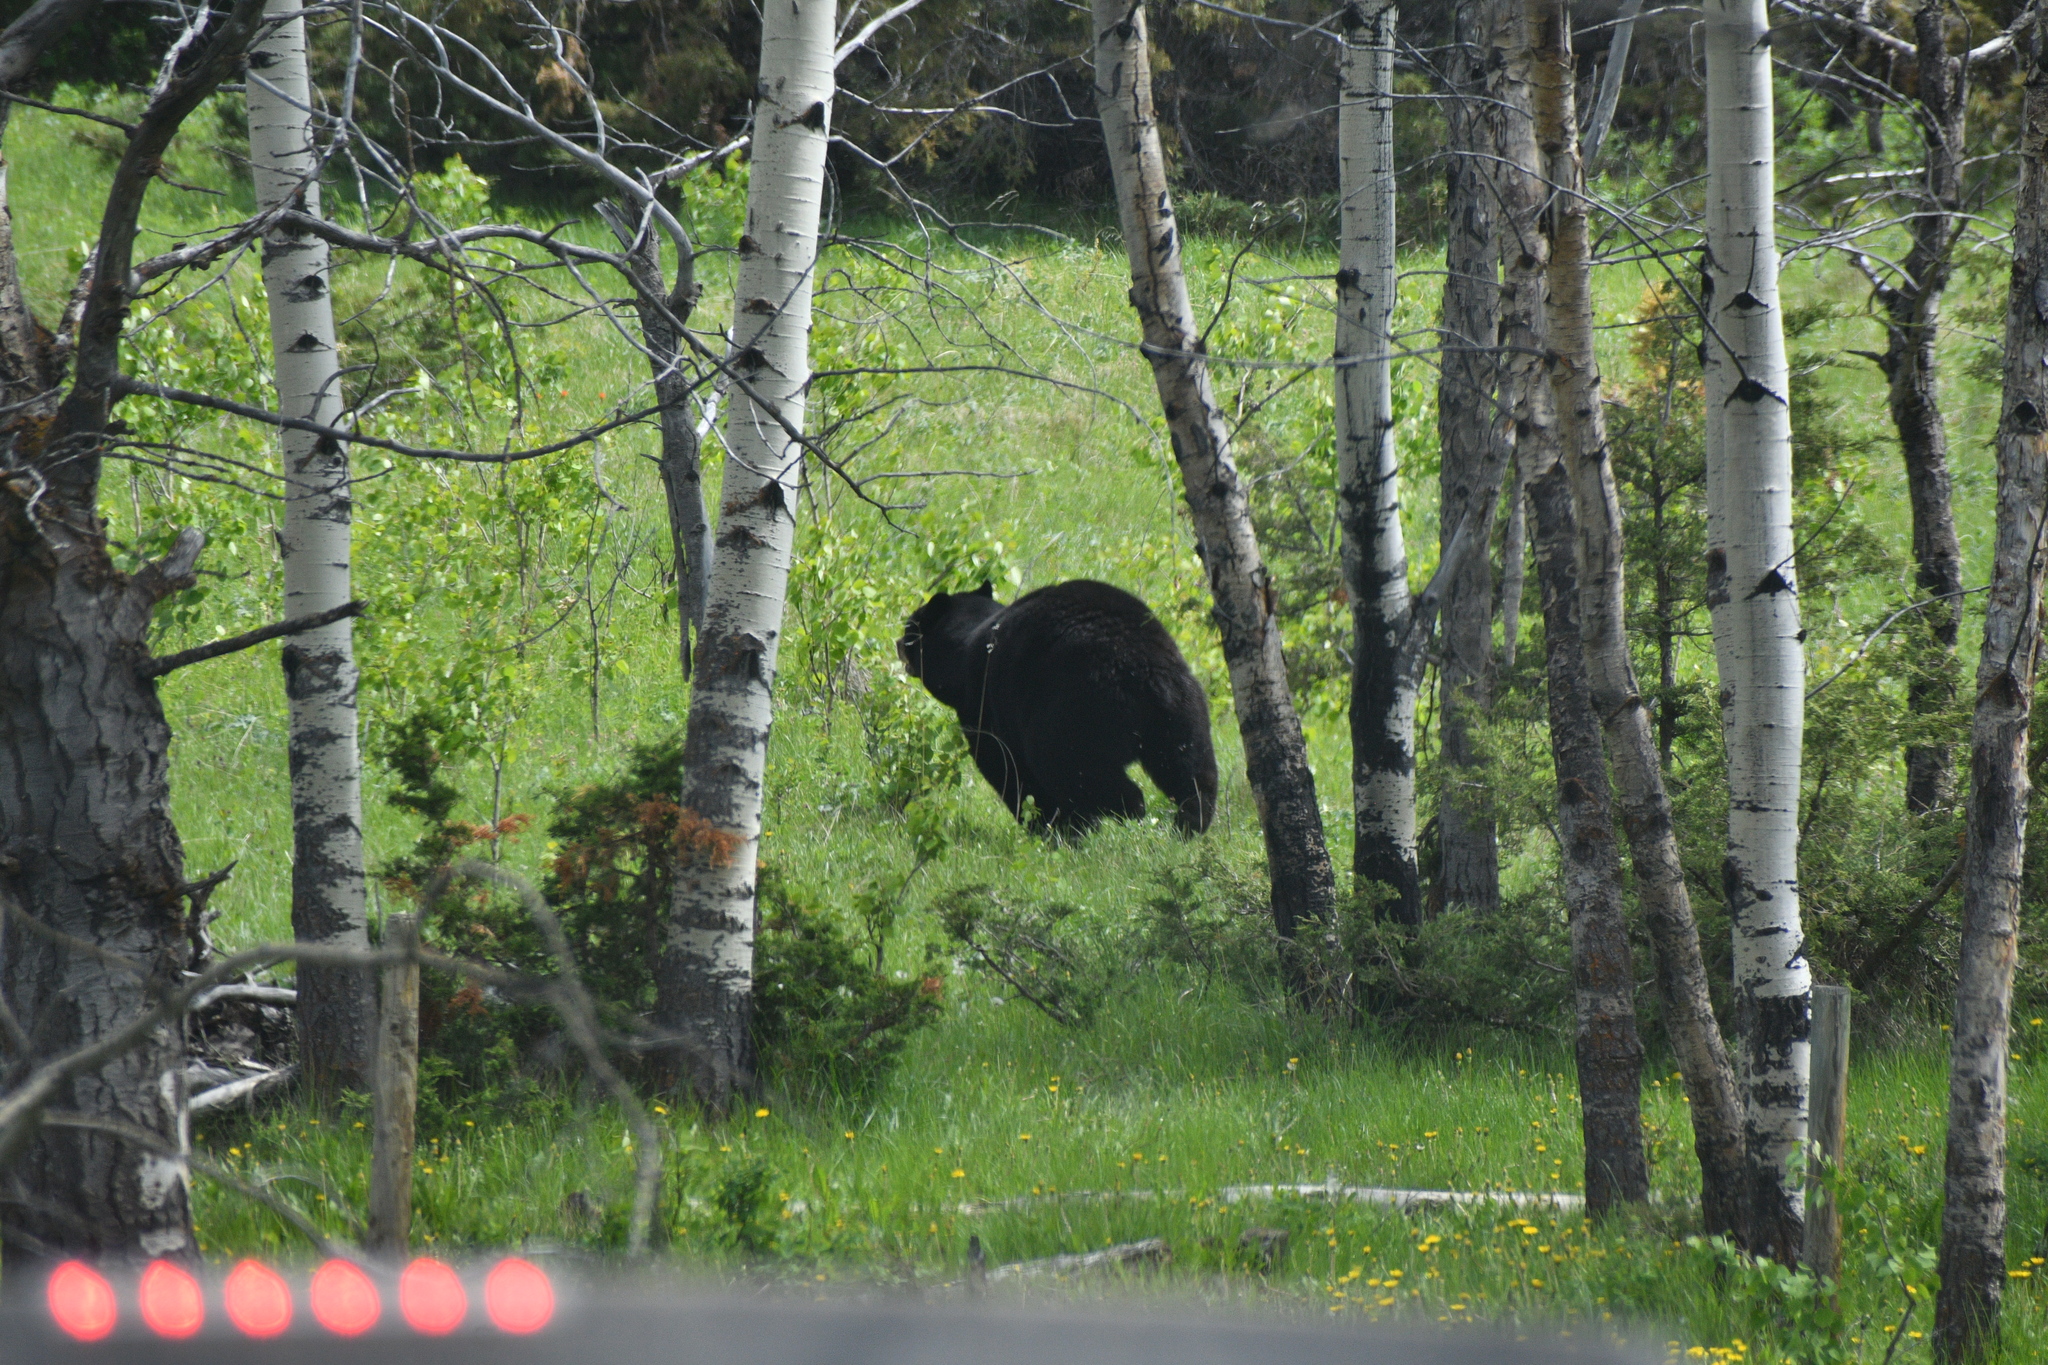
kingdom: Animalia
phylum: Chordata
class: Mammalia
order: Carnivora
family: Ursidae
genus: Ursus
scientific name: Ursus americanus
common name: American black bear
